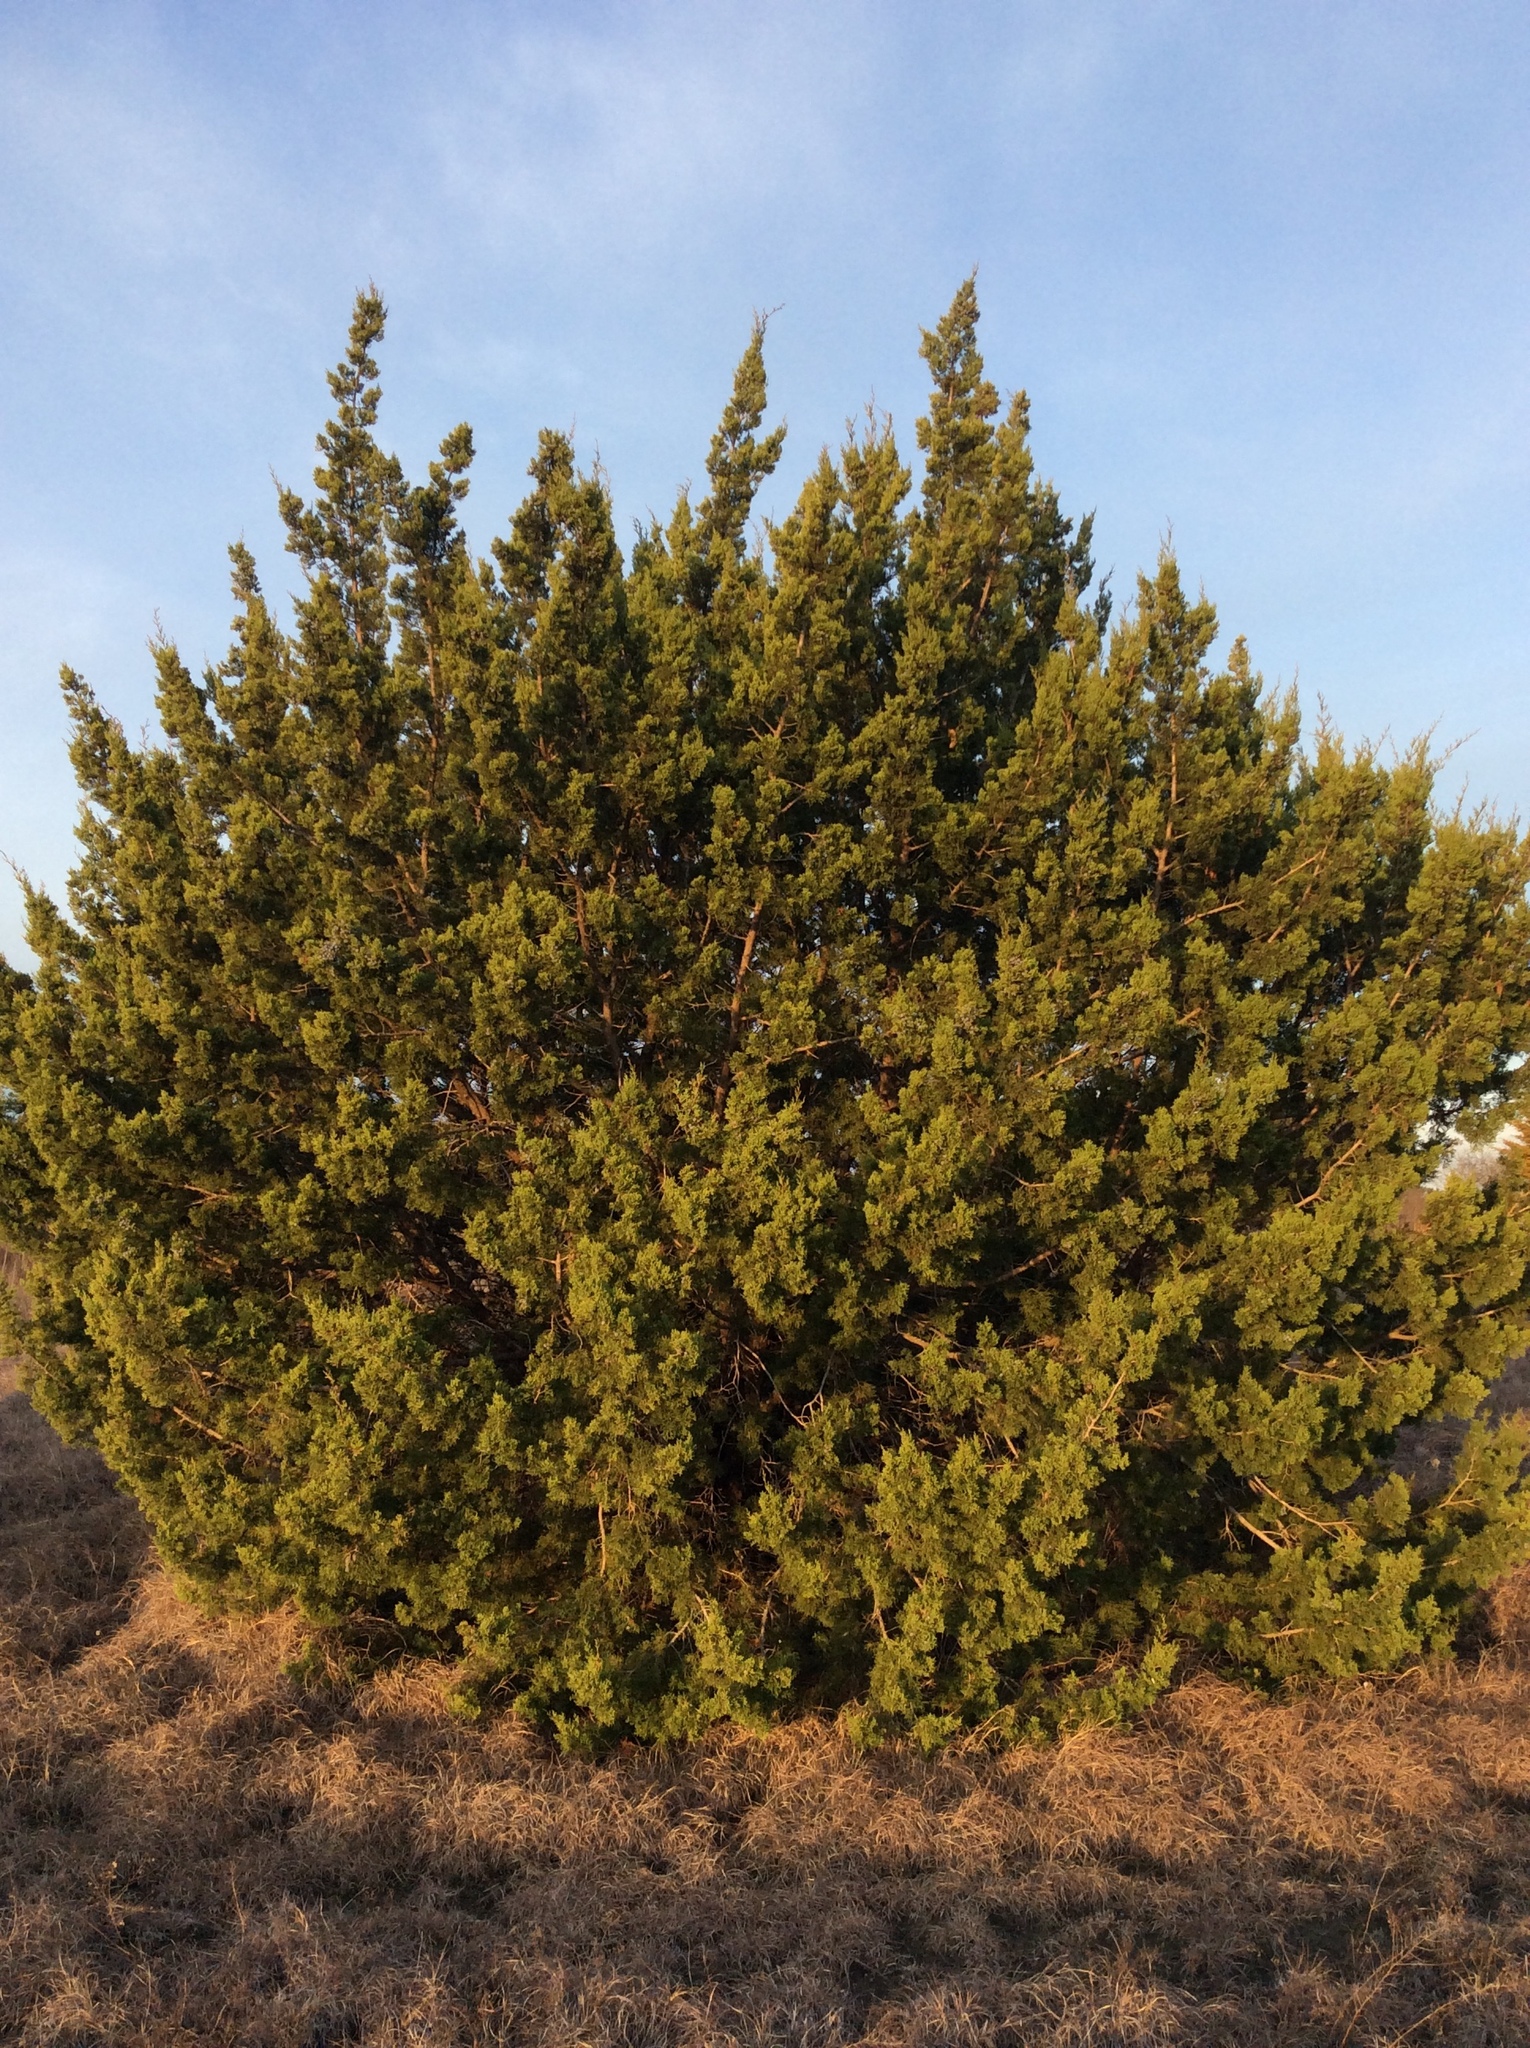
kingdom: Plantae
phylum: Tracheophyta
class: Pinopsida
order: Pinales
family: Cupressaceae
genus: Juniperus
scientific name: Juniperus ashei
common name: Mexican juniper
